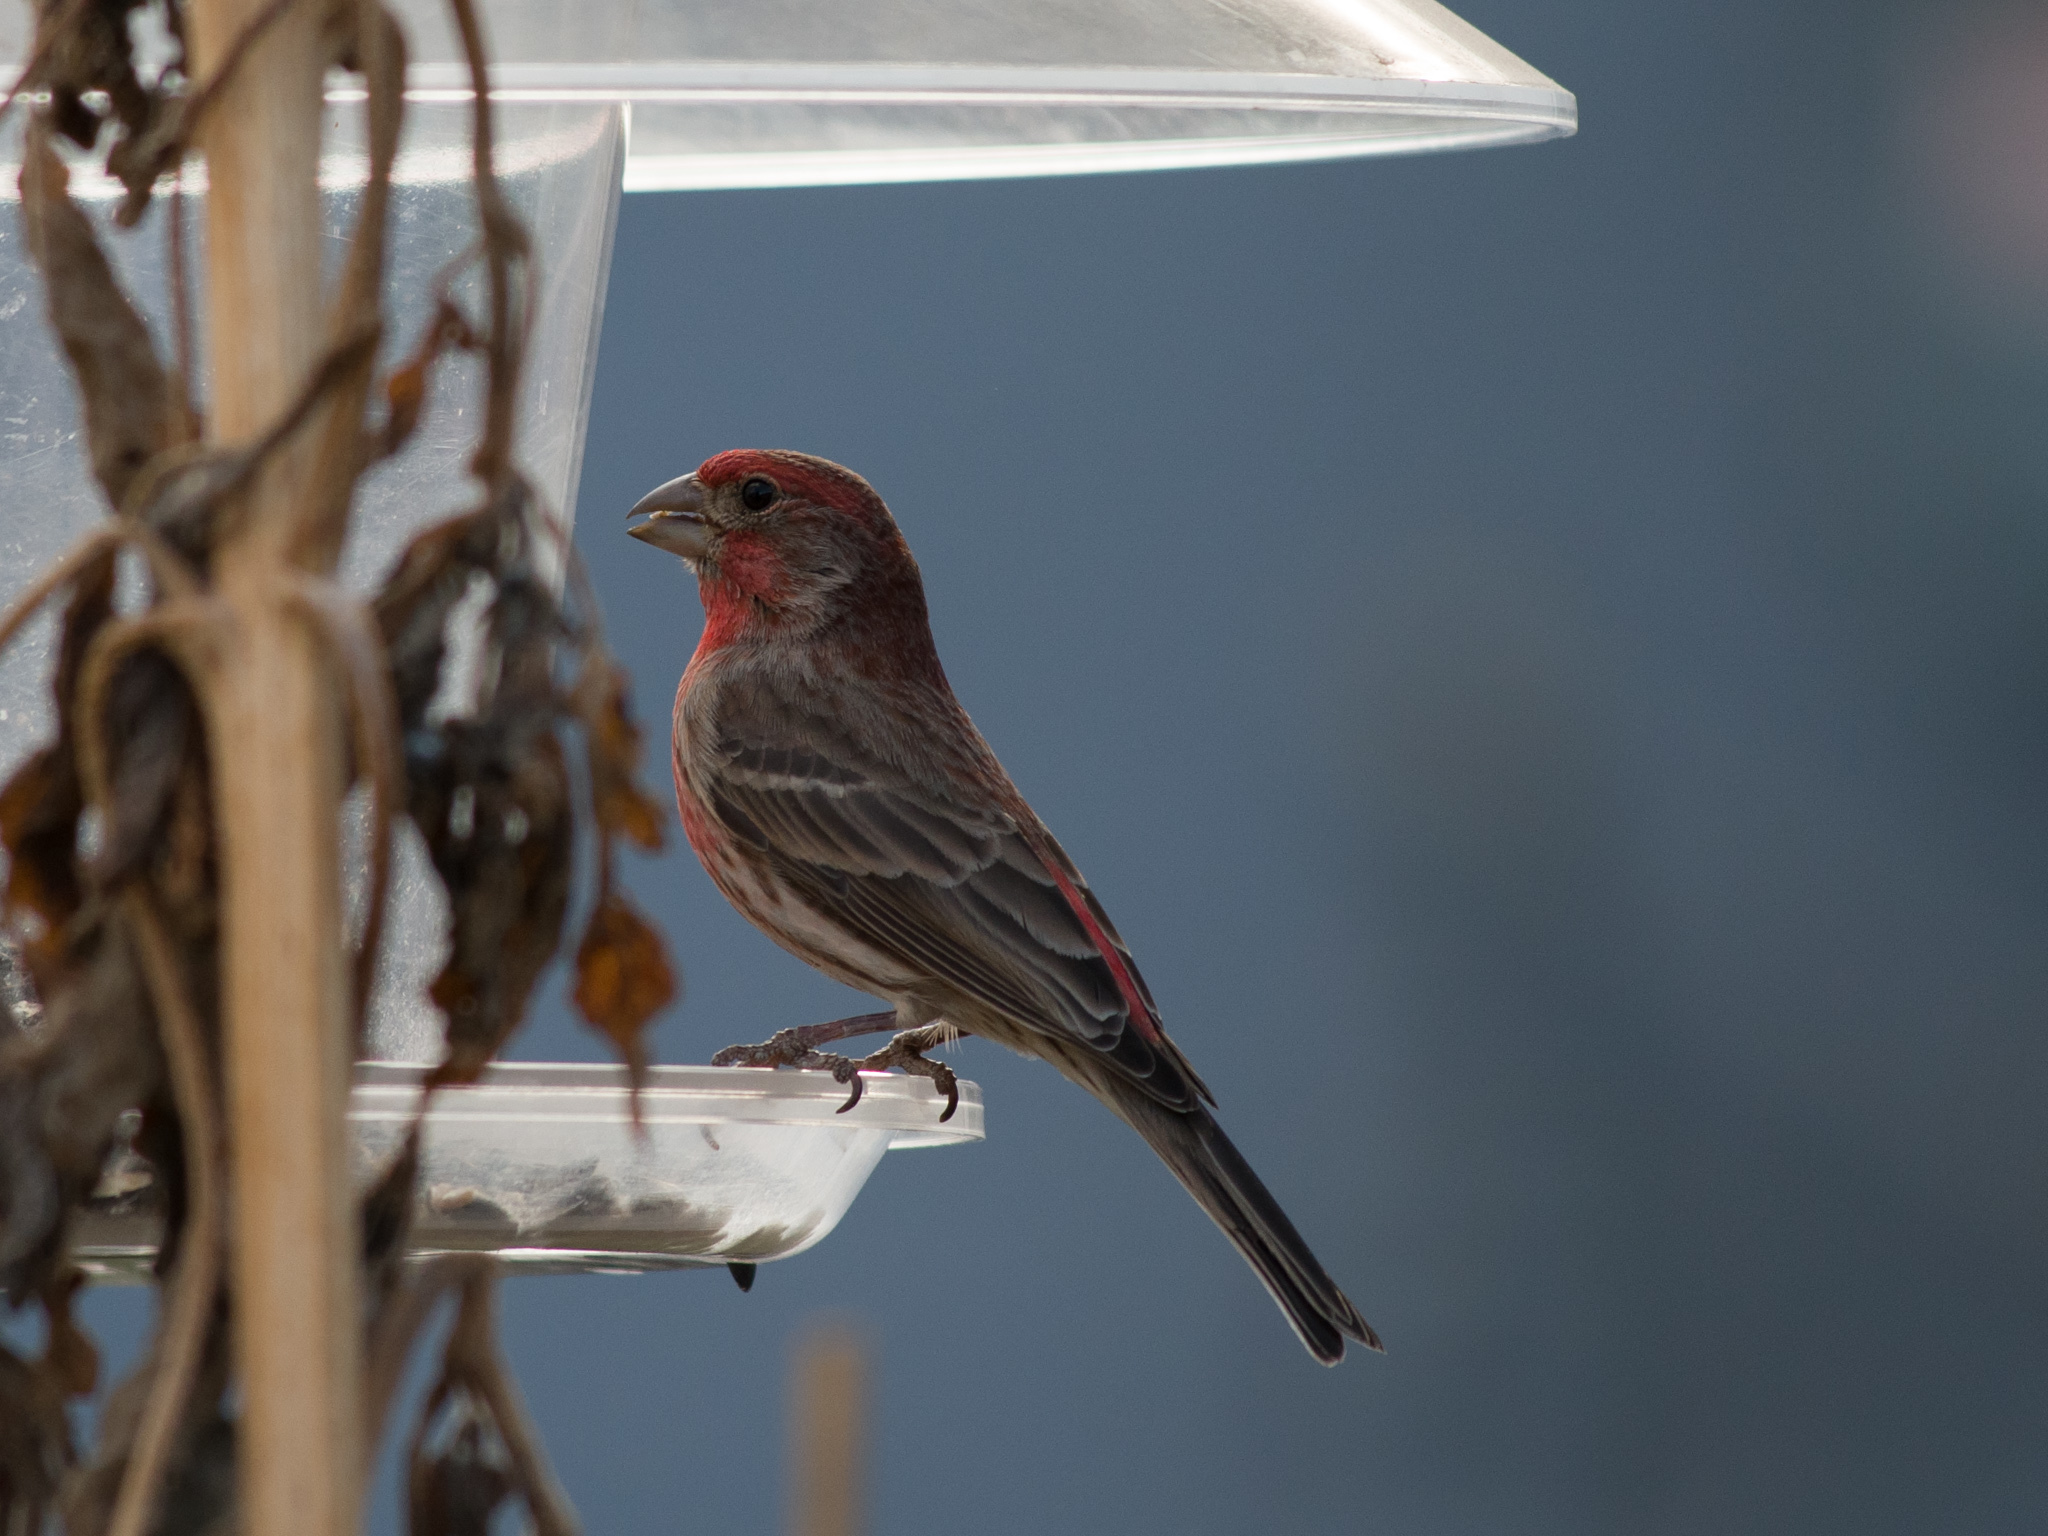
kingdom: Animalia
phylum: Chordata
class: Aves
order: Passeriformes
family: Fringillidae
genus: Haemorhous
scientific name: Haemorhous mexicanus
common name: House finch
